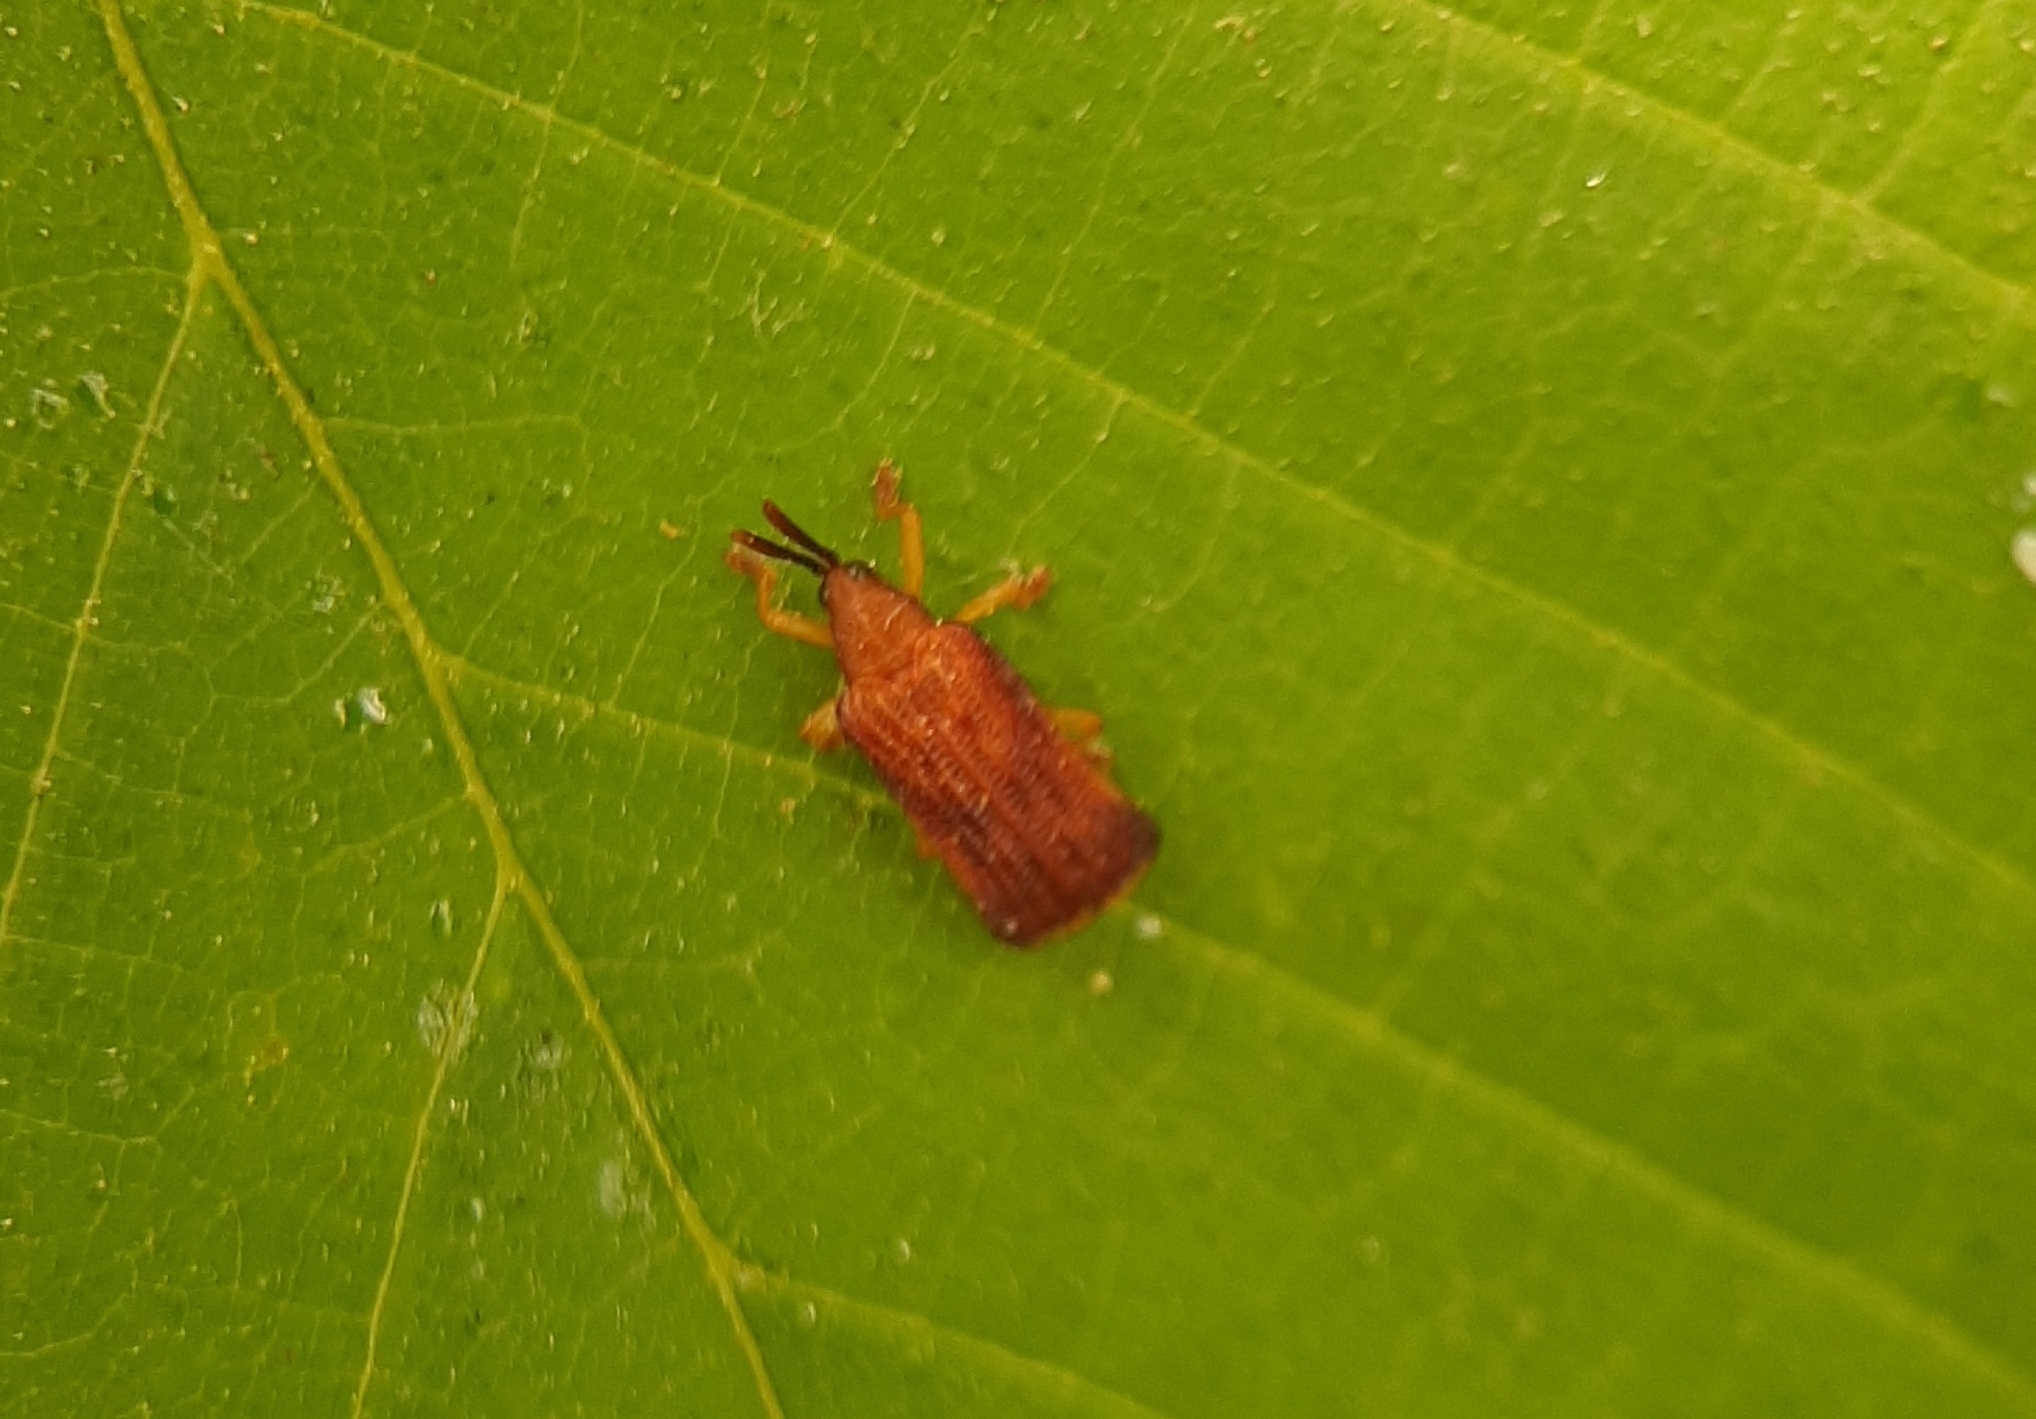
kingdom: Animalia
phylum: Arthropoda
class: Insecta
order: Coleoptera
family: Chrysomelidae
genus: Baliosus
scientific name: Baliosus nervosus
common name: Basswood leaf miner
